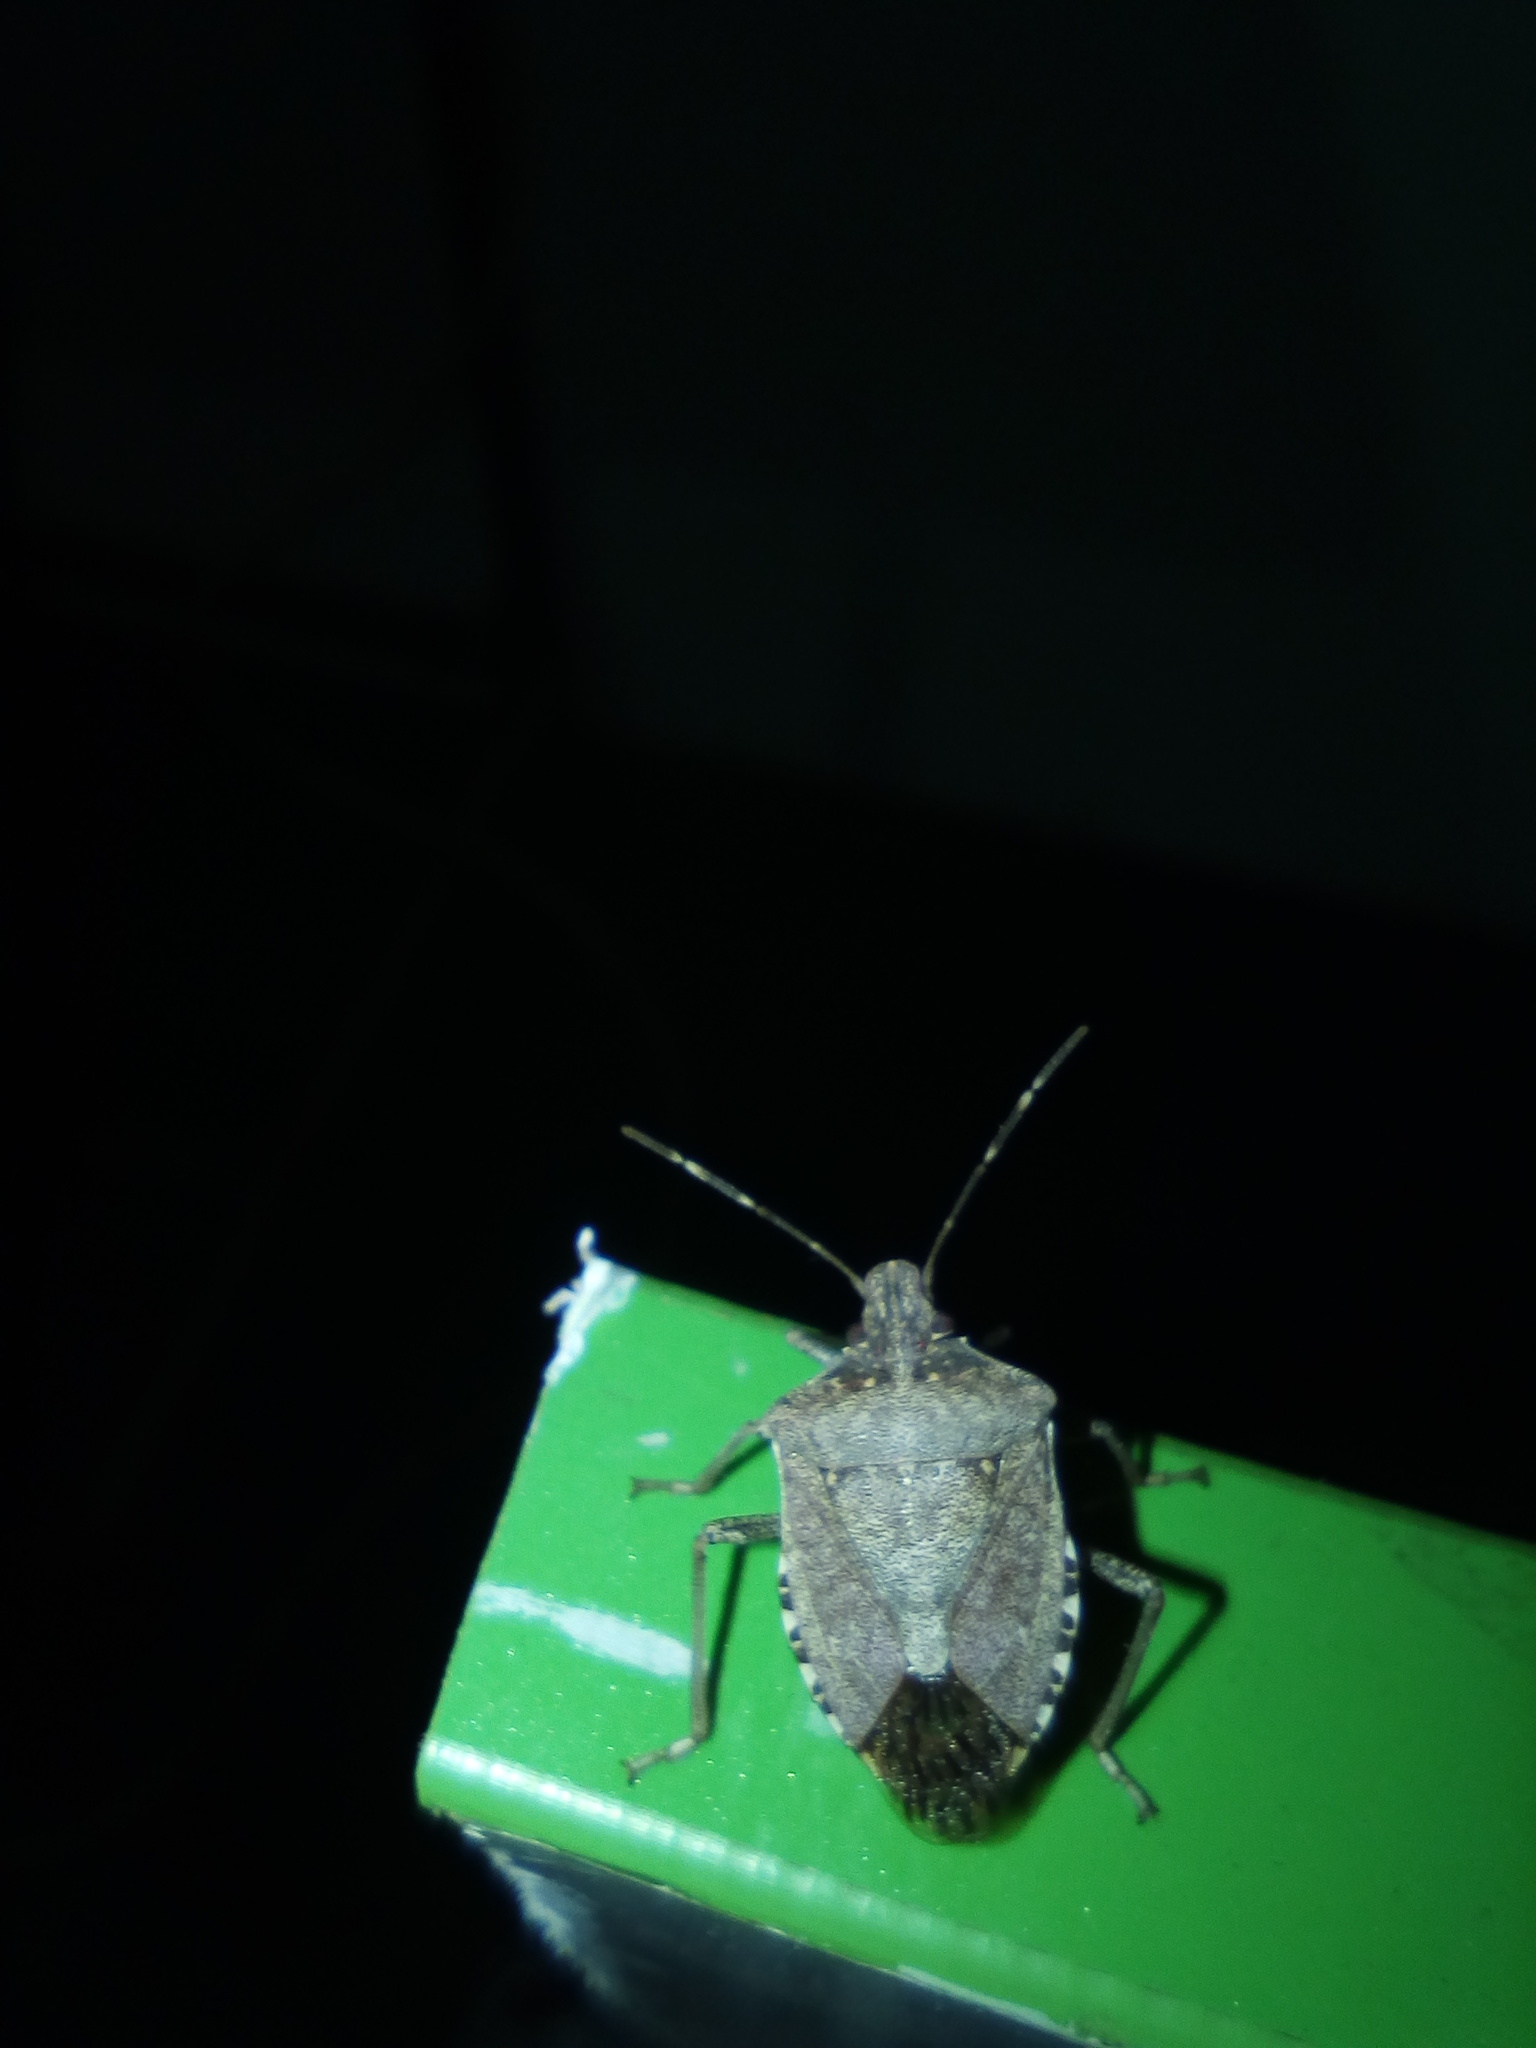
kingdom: Animalia
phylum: Arthropoda
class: Insecta
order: Hemiptera
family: Pentatomidae
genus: Halyomorpha
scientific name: Halyomorpha halys
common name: Brown marmorated stink bug
